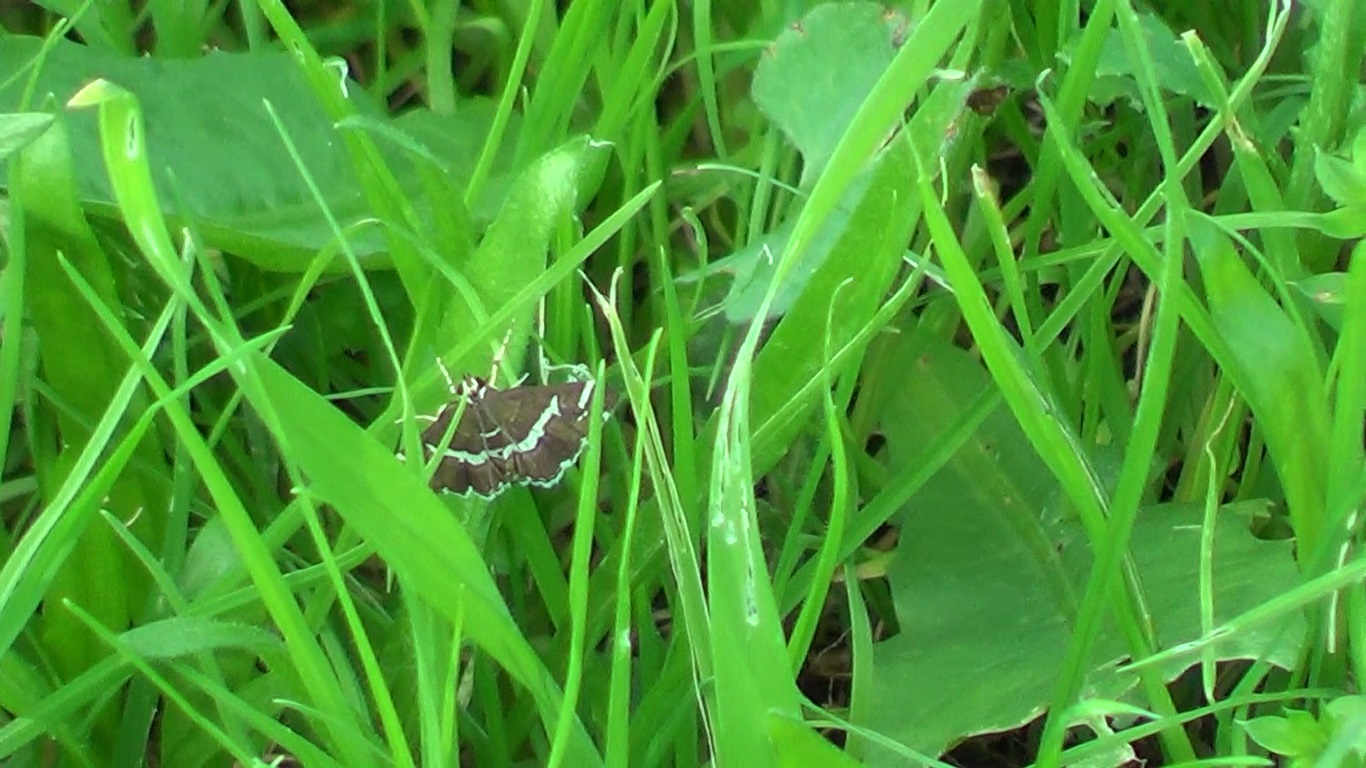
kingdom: Animalia
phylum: Arthropoda
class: Insecta
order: Lepidoptera
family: Crambidae
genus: Spoladea
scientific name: Spoladea recurvalis
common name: Beet webworm moth
